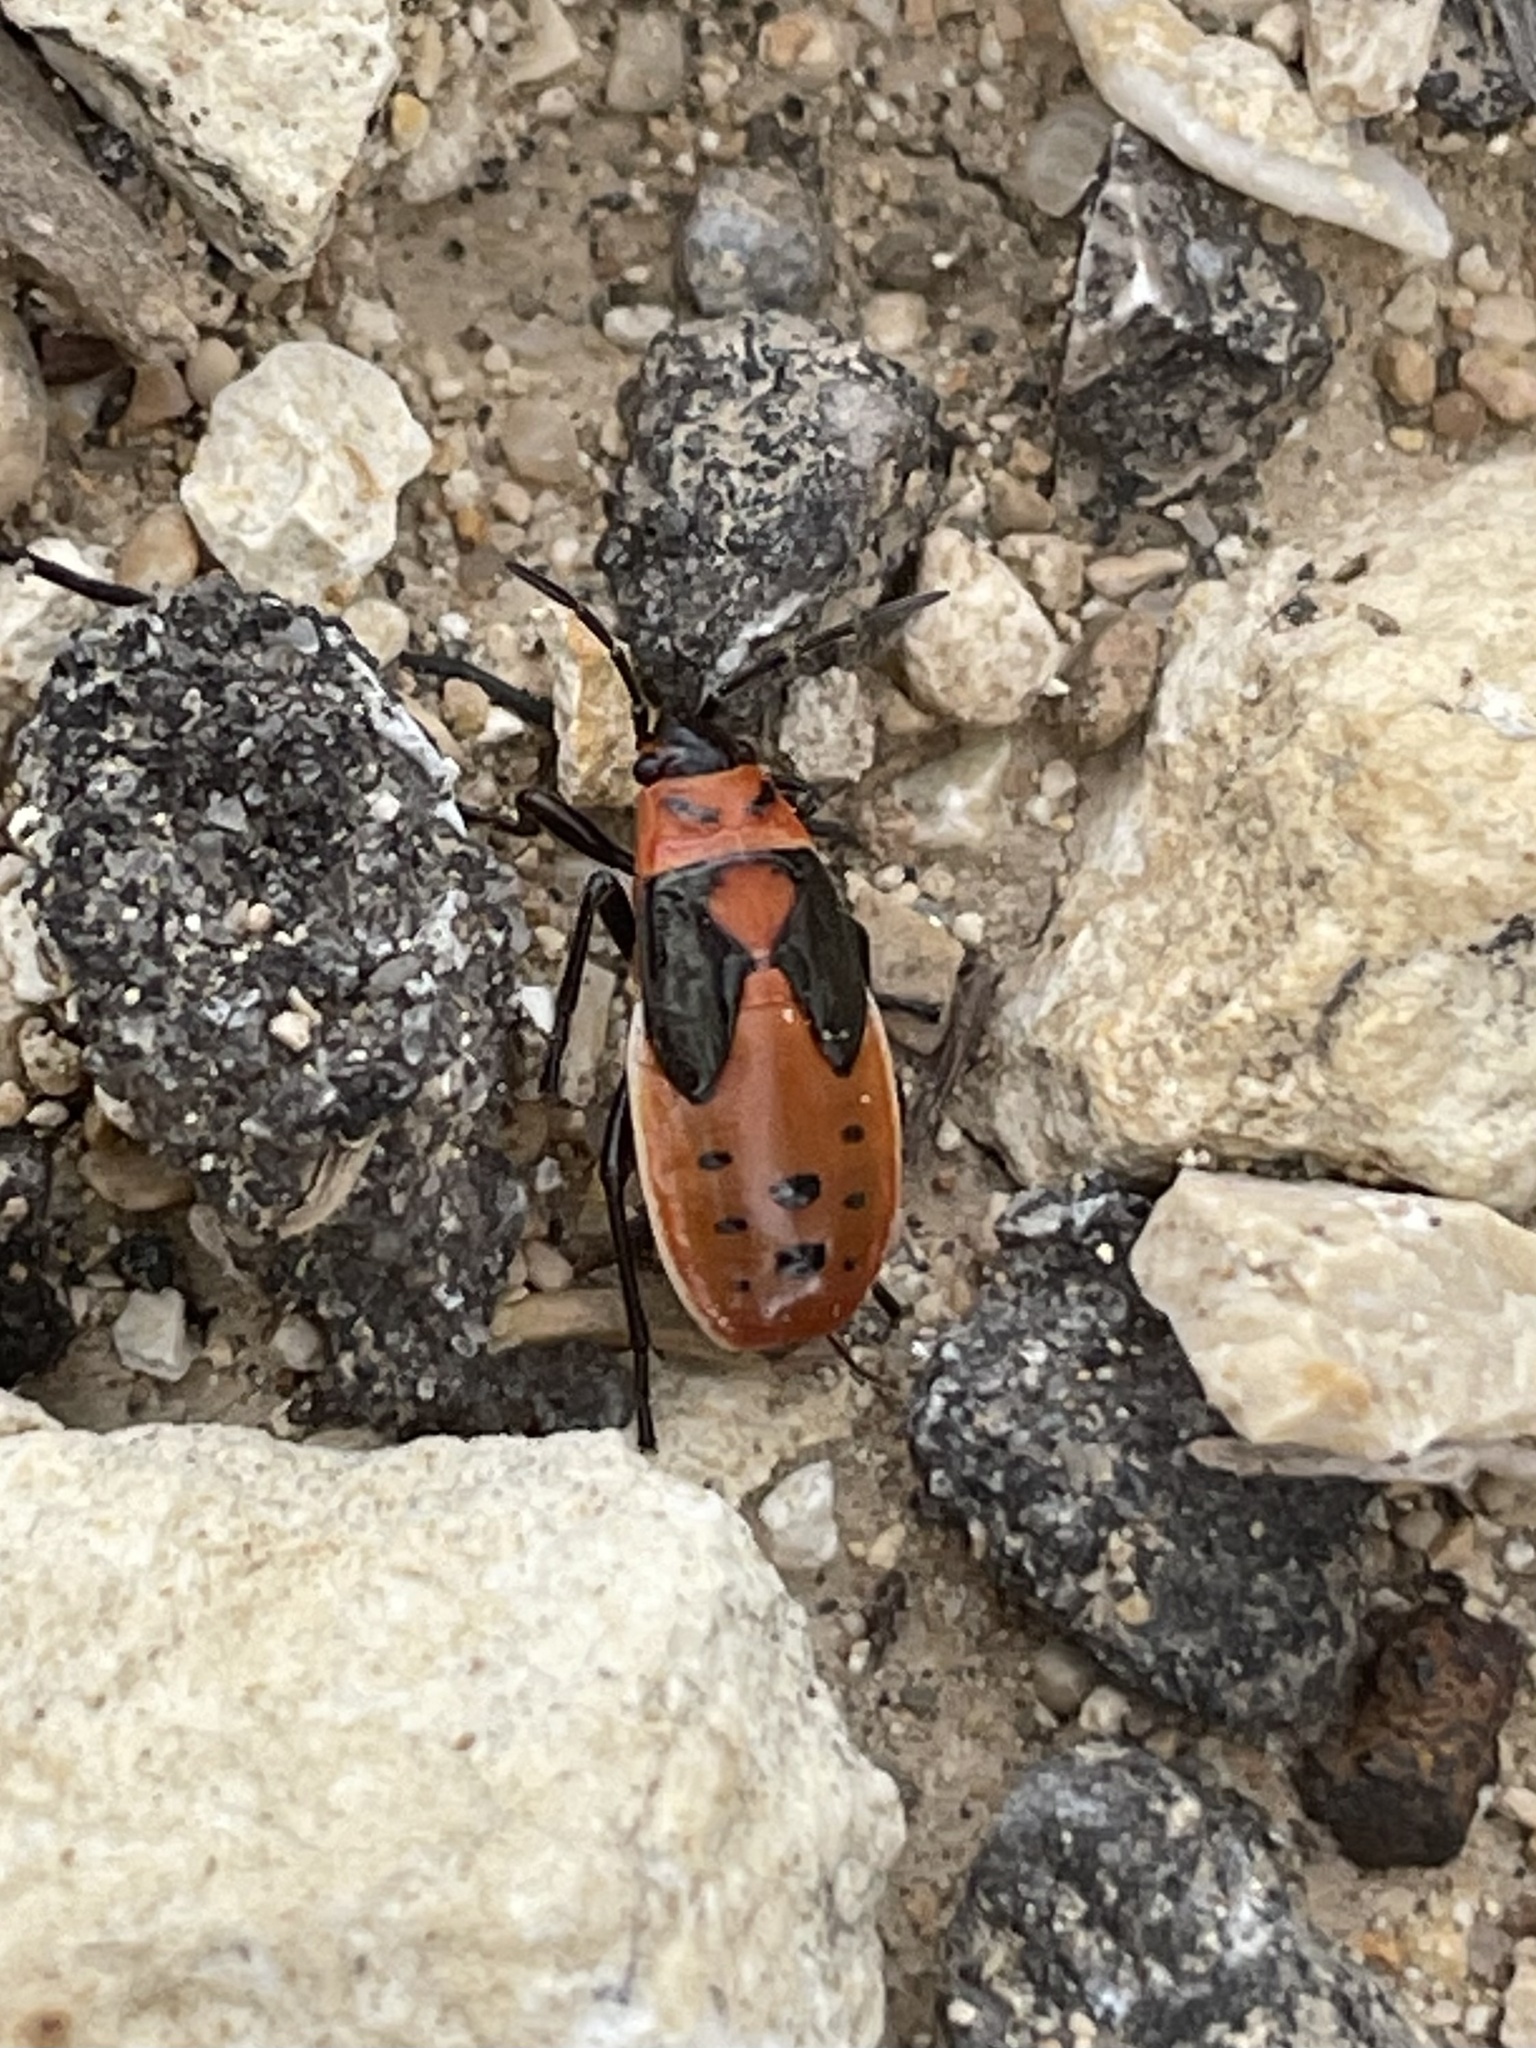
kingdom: Animalia
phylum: Arthropoda
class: Insecta
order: Hemiptera
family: Lygaeidae
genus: Lygaeus
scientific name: Lygaeus kalmii
